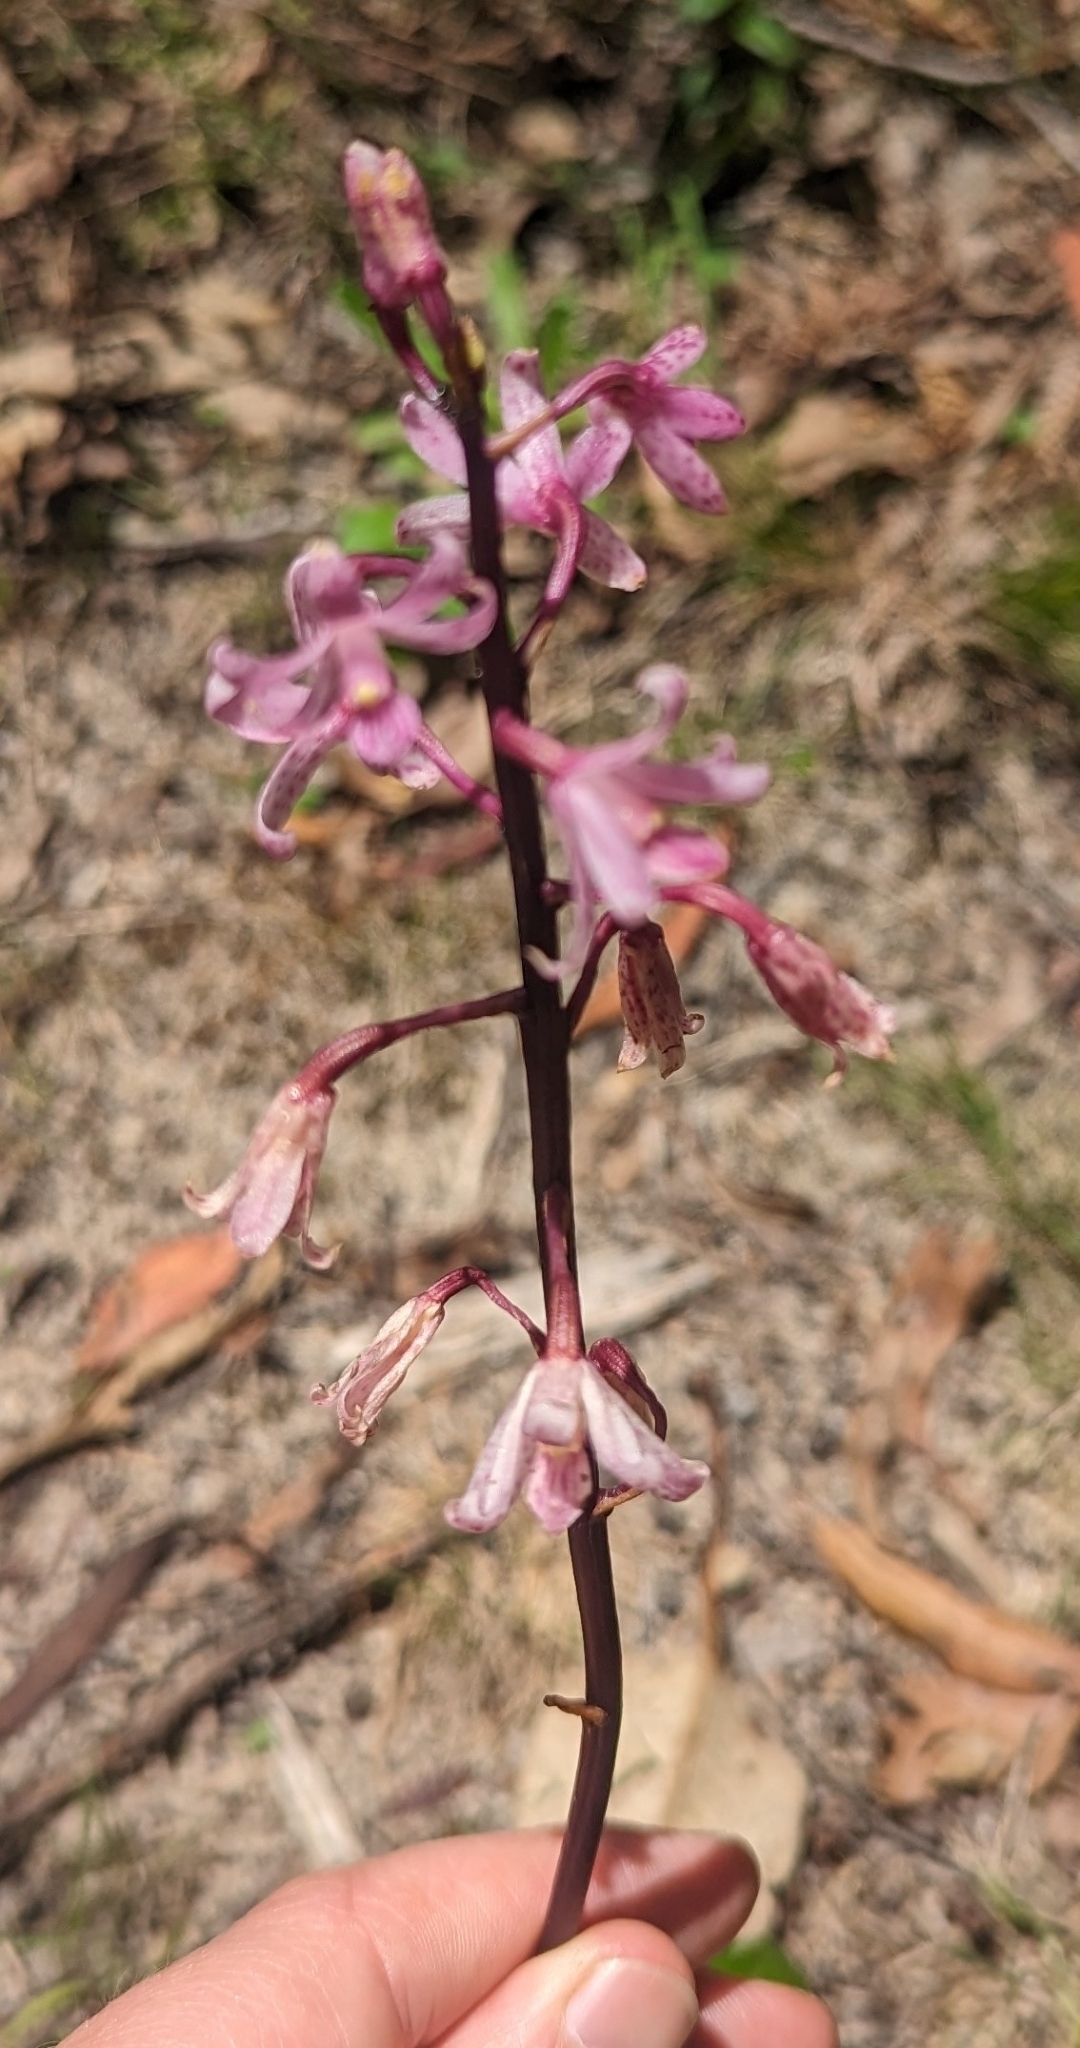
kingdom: Plantae
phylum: Tracheophyta
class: Liliopsida
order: Asparagales
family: Orchidaceae
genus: Dipodium
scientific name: Dipodium roseum
